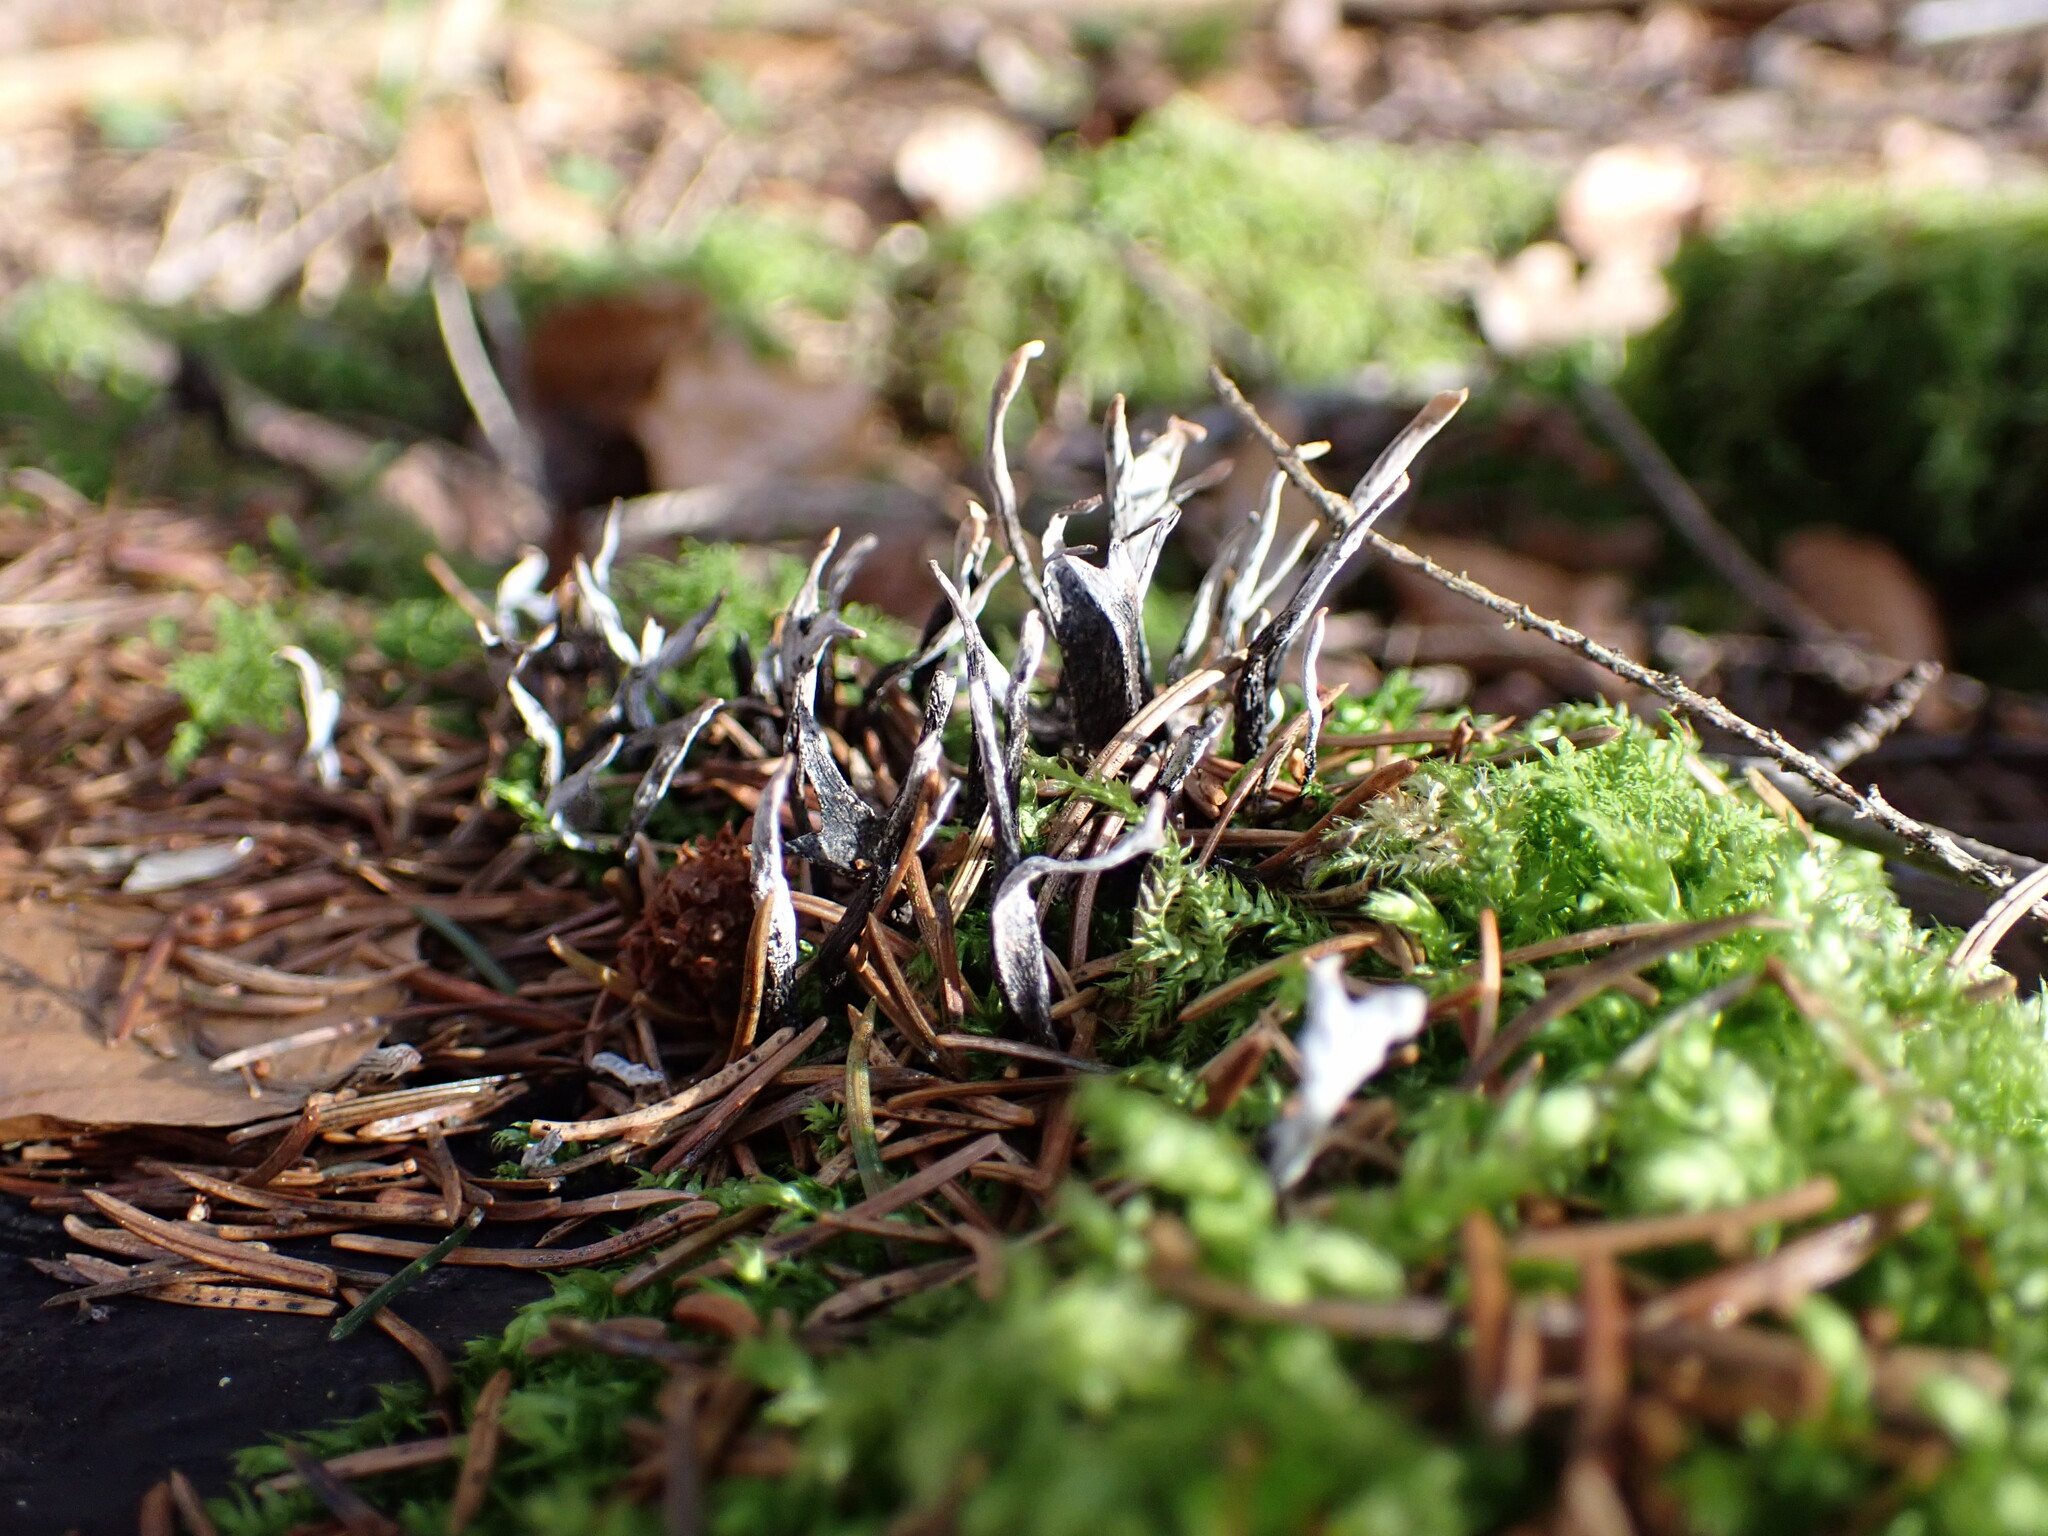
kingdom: Fungi
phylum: Ascomycota
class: Sordariomycetes
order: Xylariales
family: Xylariaceae
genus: Xylaria
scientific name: Xylaria hypoxylon
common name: Candle-snuff fungus
